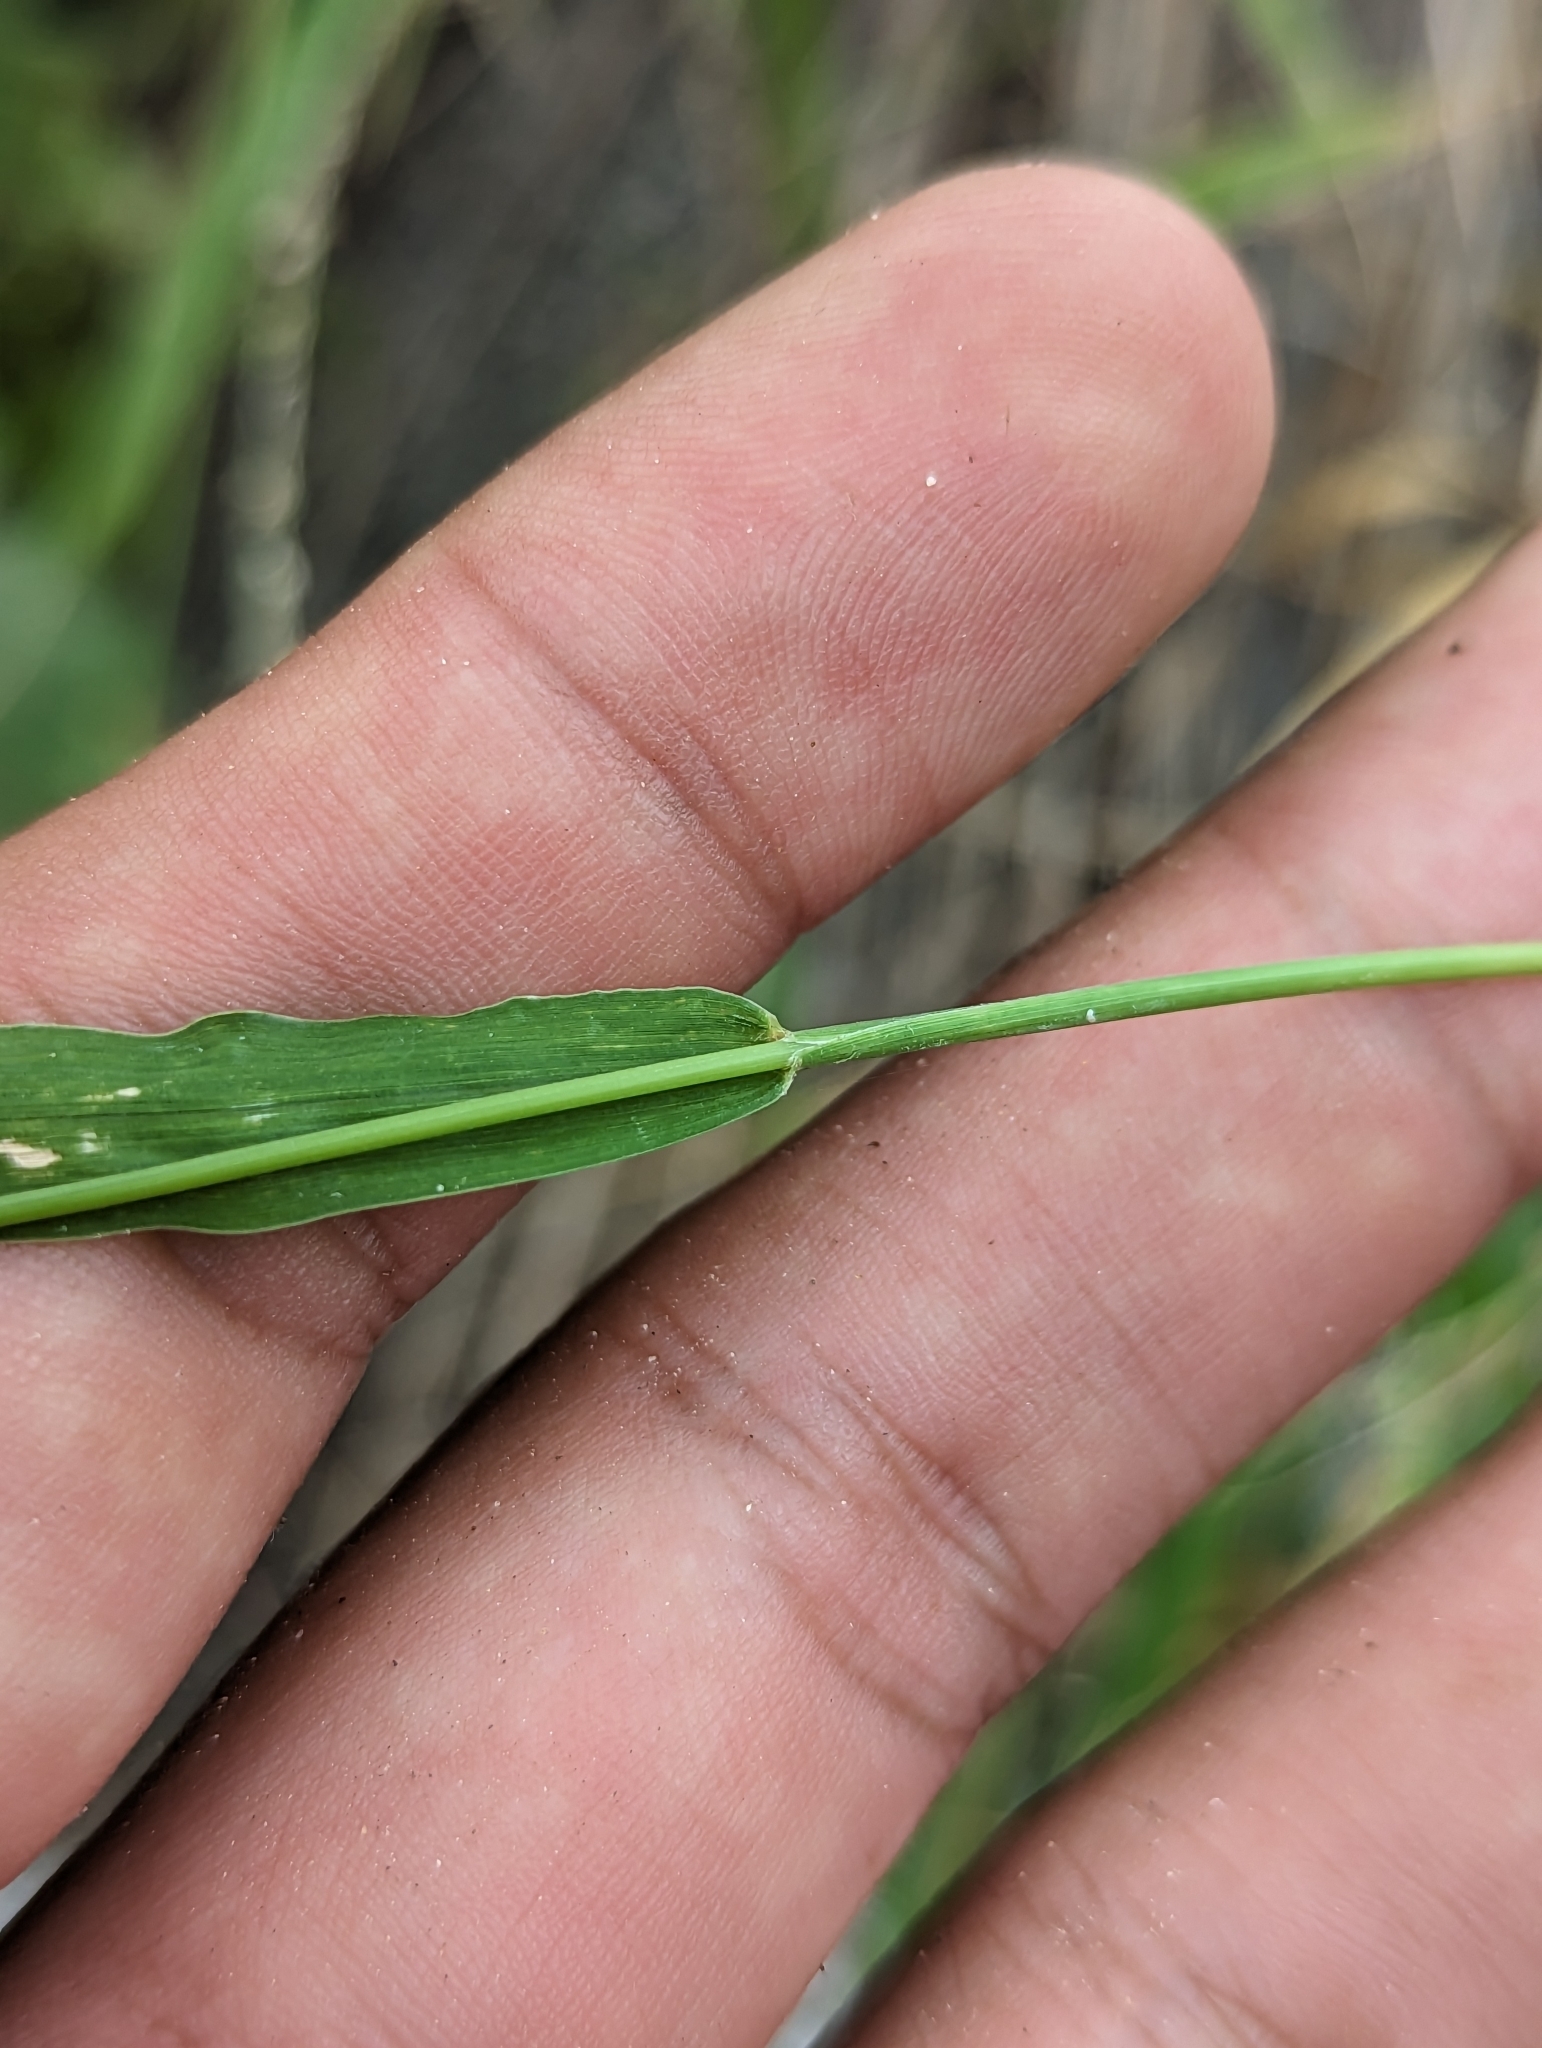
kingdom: Plantae
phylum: Tracheophyta
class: Liliopsida
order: Poales
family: Poaceae
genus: Setaria
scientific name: Setaria palmeri
